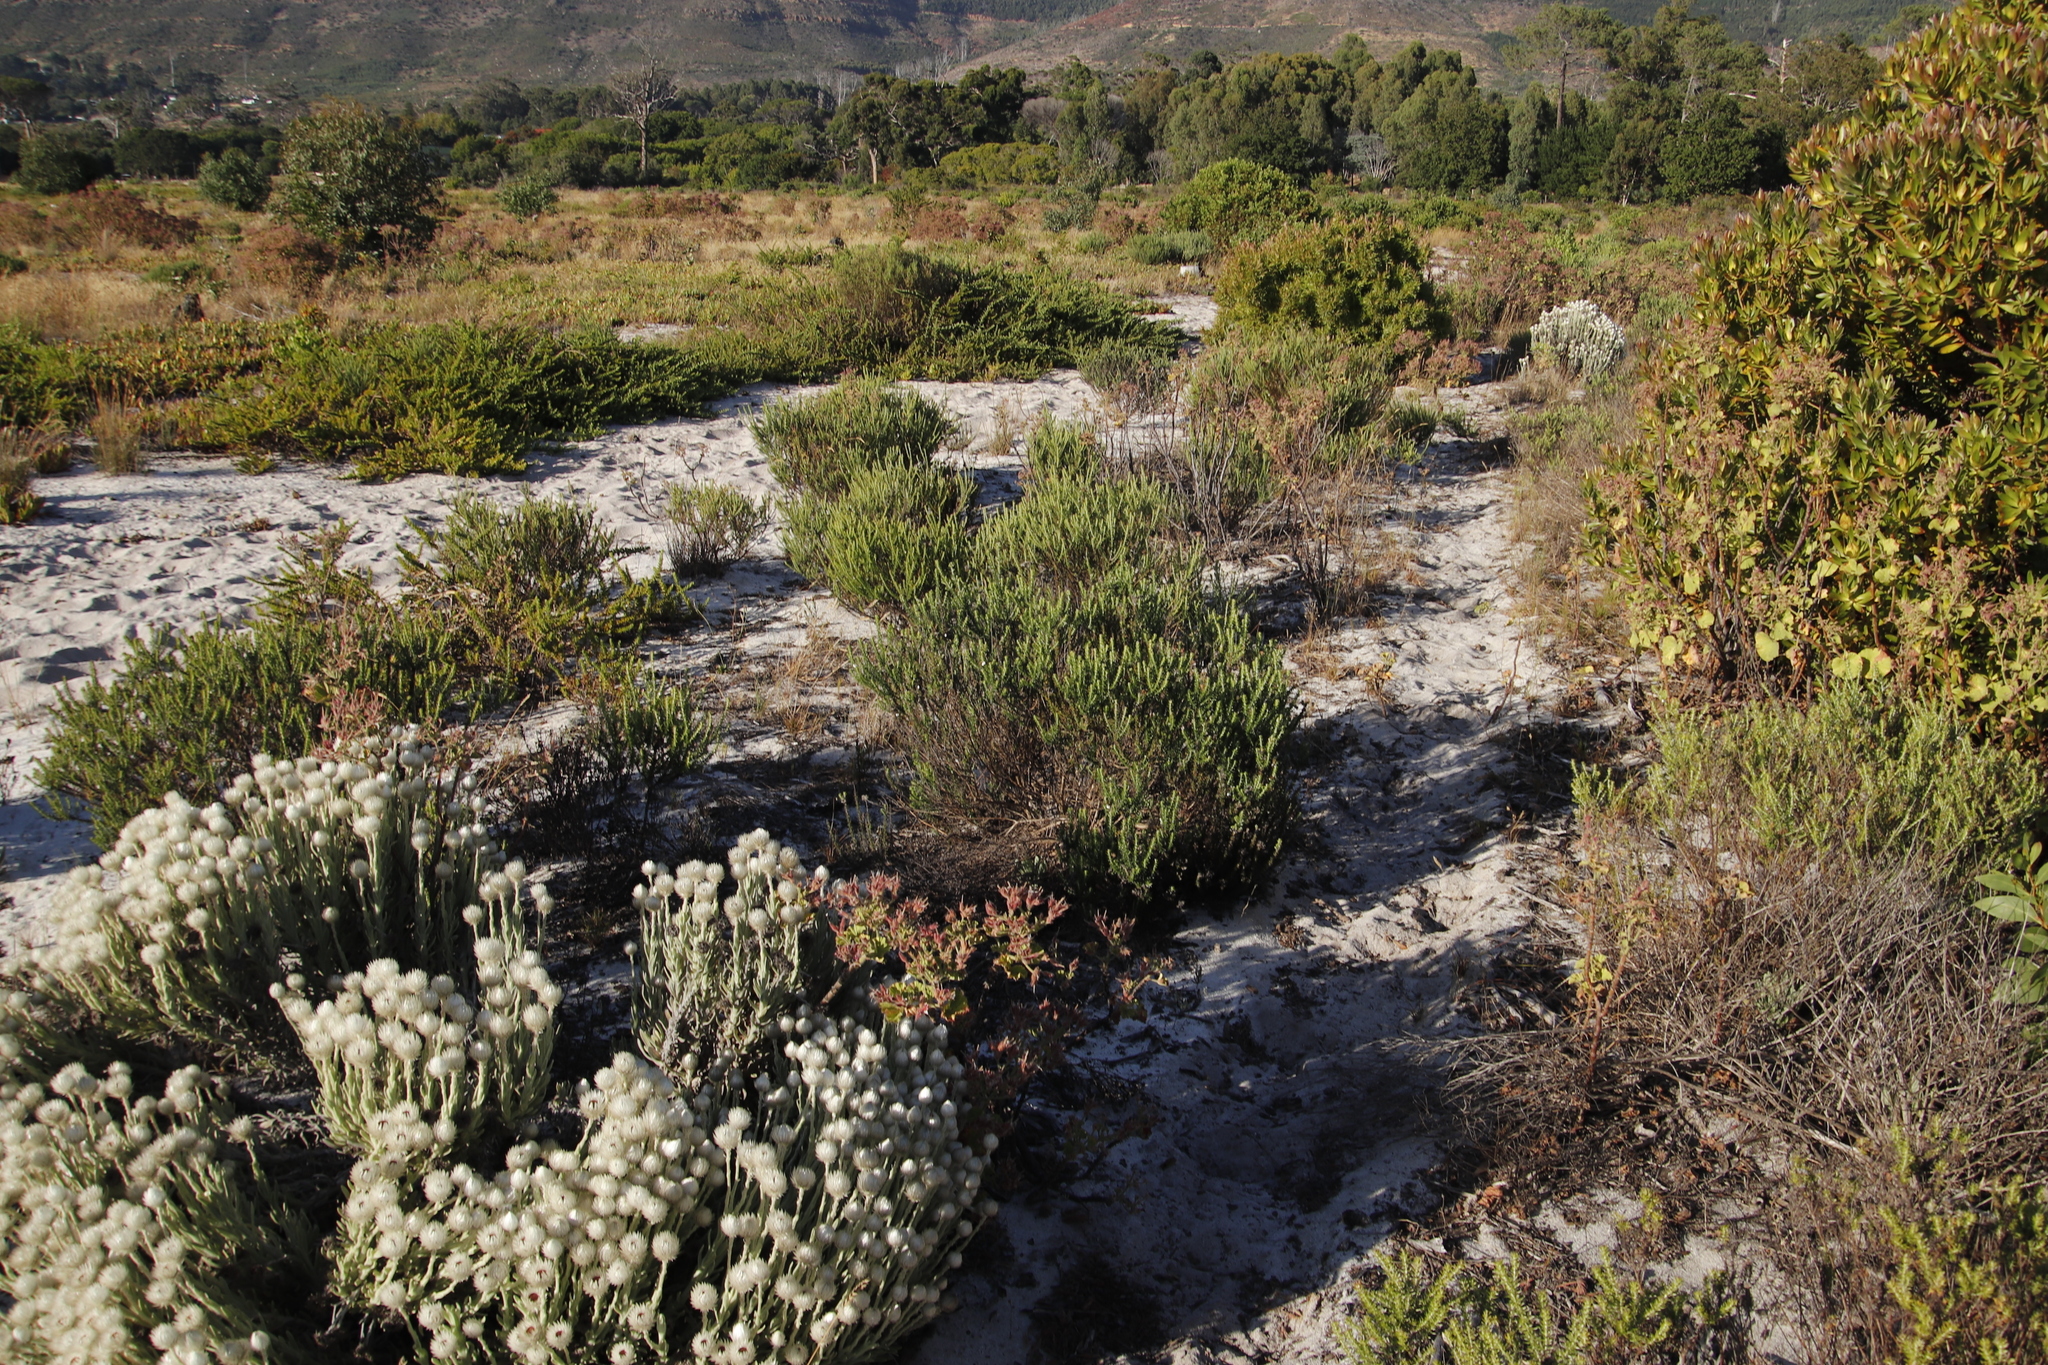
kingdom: Plantae
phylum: Tracheophyta
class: Magnoliopsida
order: Asterales
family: Asteraceae
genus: Metalasia
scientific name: Metalasia densa
